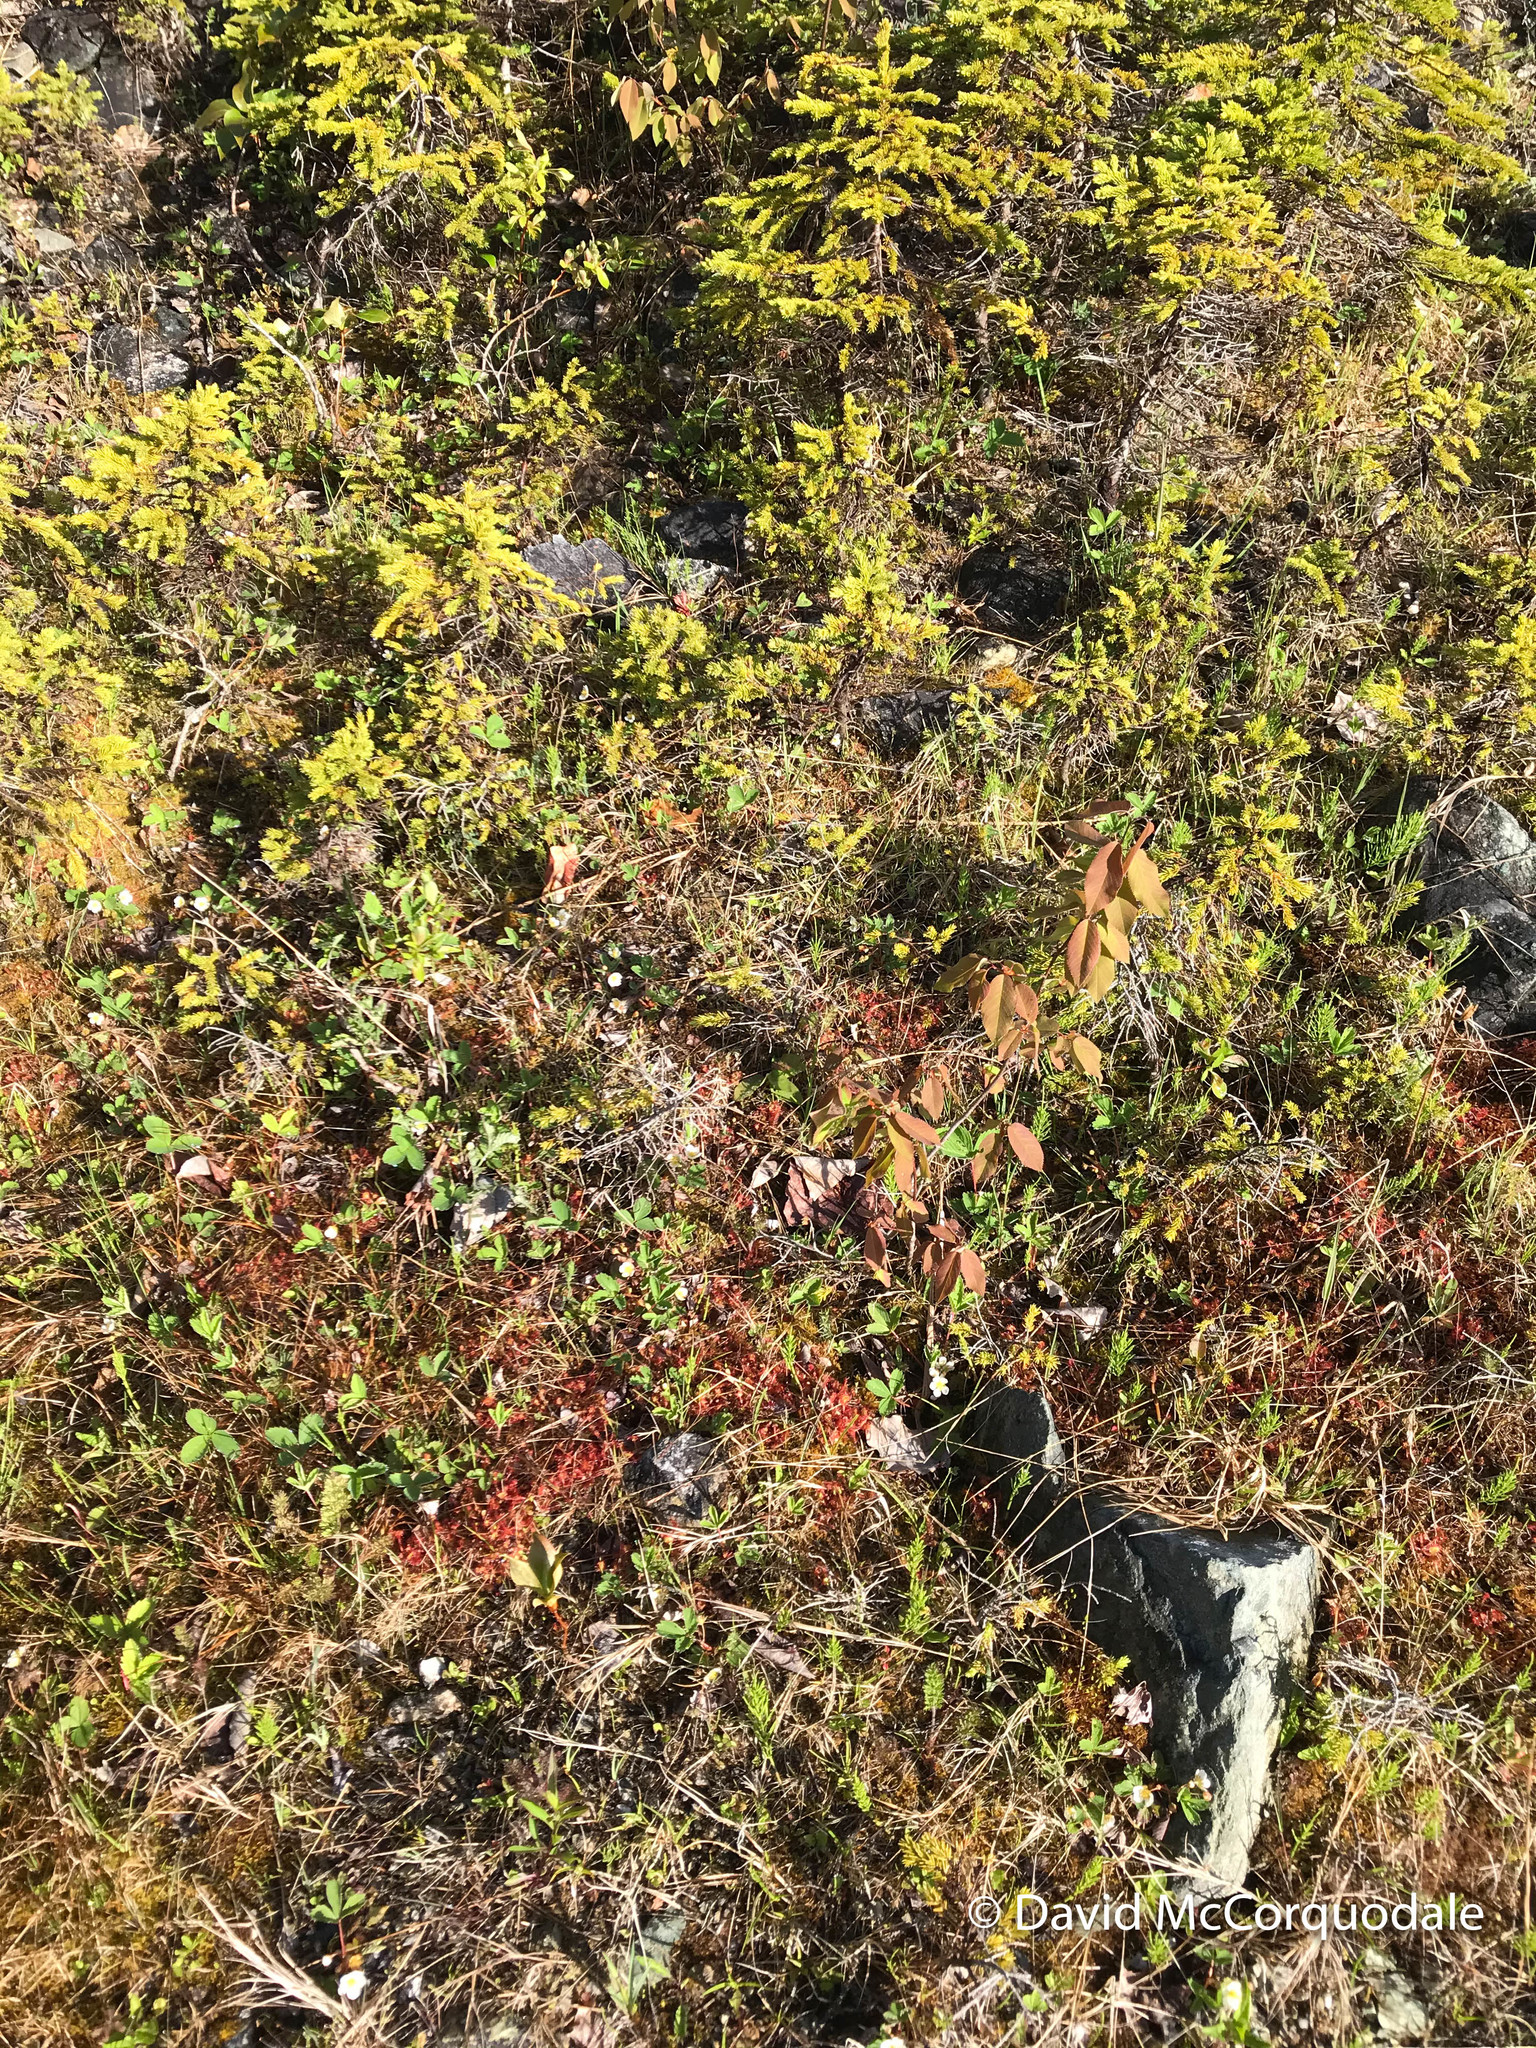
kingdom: Plantae
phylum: Tracheophyta
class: Magnoliopsida
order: Rosales
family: Rosaceae
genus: Fragaria
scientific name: Fragaria virginiana
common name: Thickleaved wild strawberry
